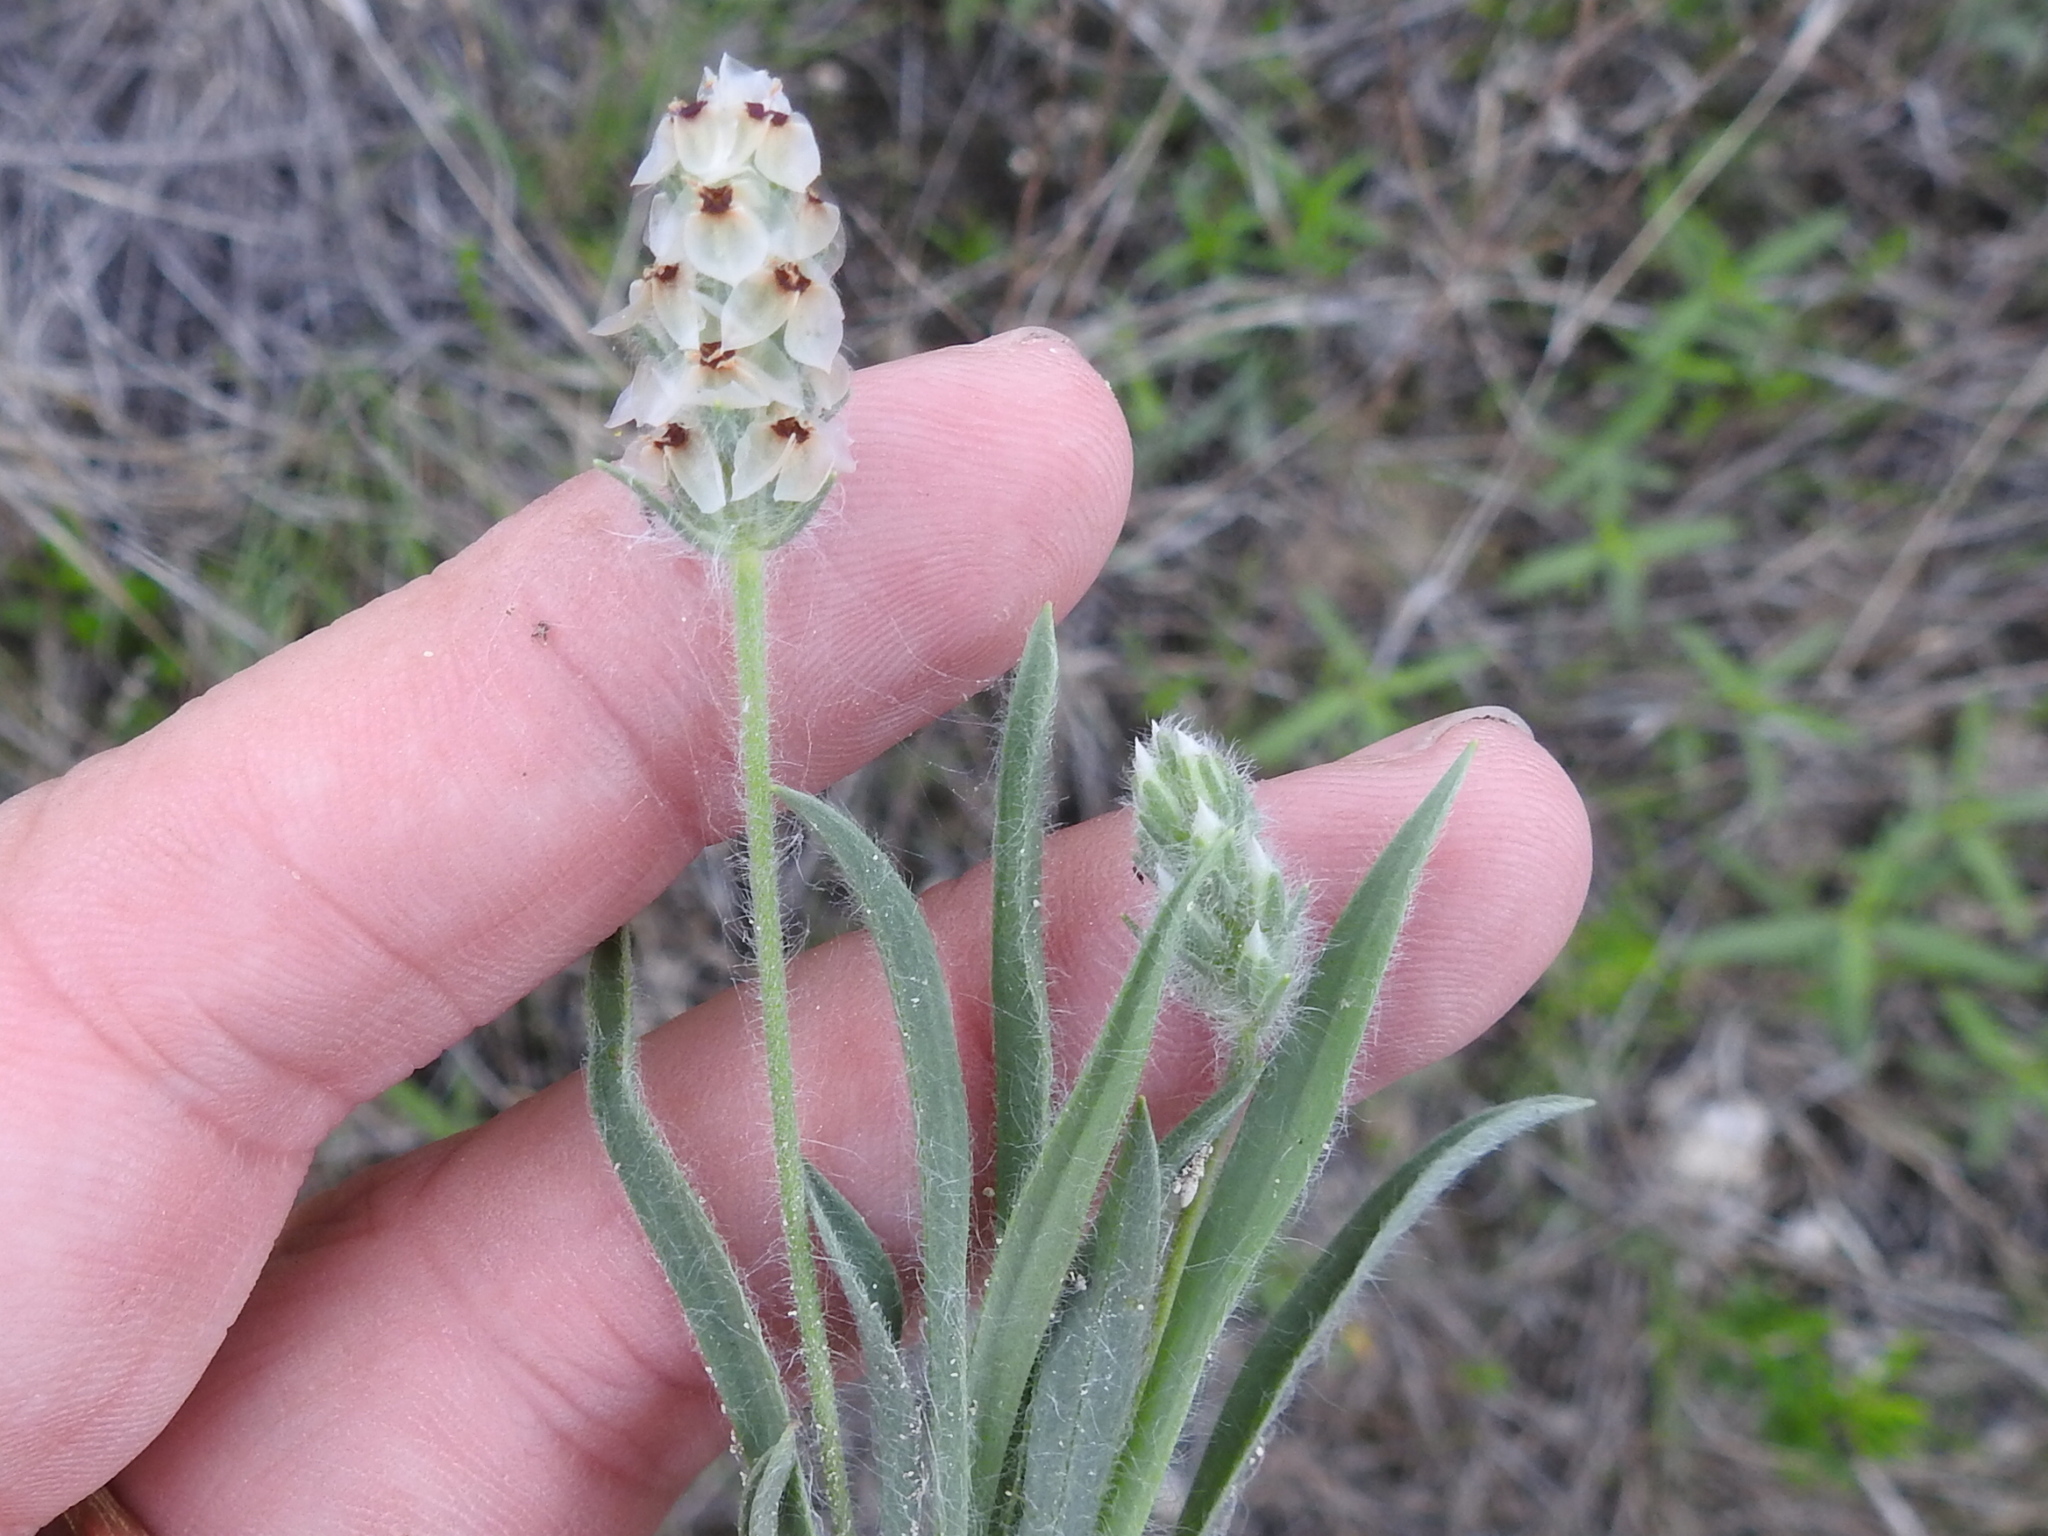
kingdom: Plantae
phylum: Tracheophyta
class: Magnoliopsida
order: Lamiales
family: Plantaginaceae
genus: Plantago
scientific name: Plantago helleri
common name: Heller's plantain
